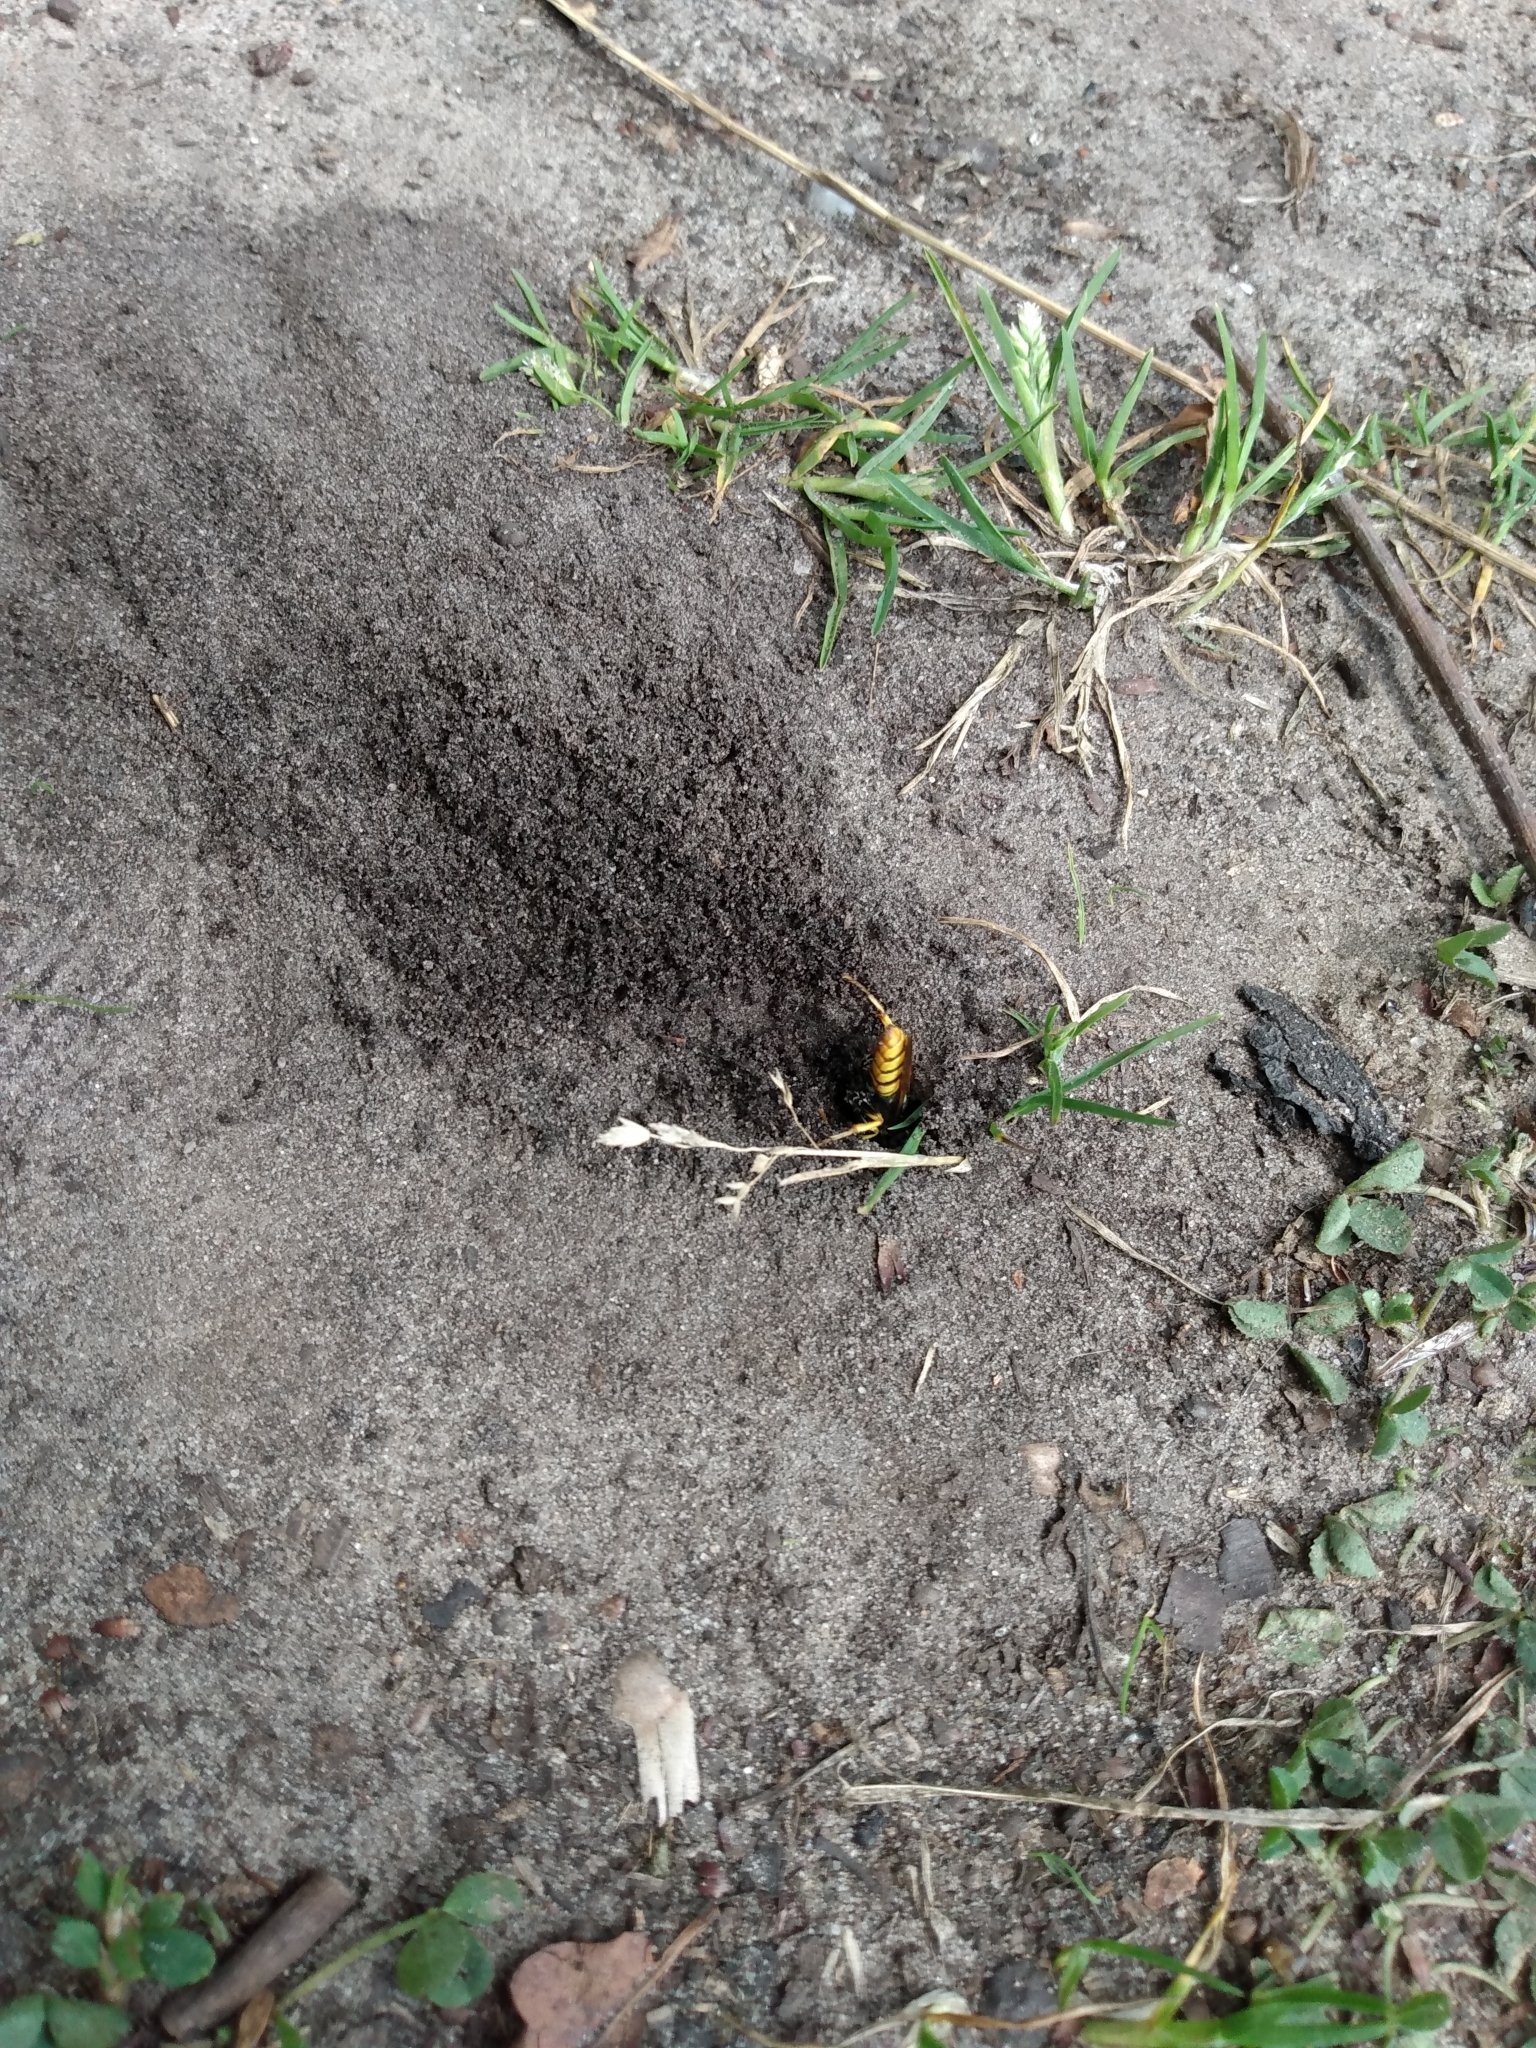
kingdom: Animalia
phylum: Arthropoda
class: Insecta
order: Hymenoptera
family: Crabronidae
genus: Philanthus
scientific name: Philanthus triangulum
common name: Bee wolf
